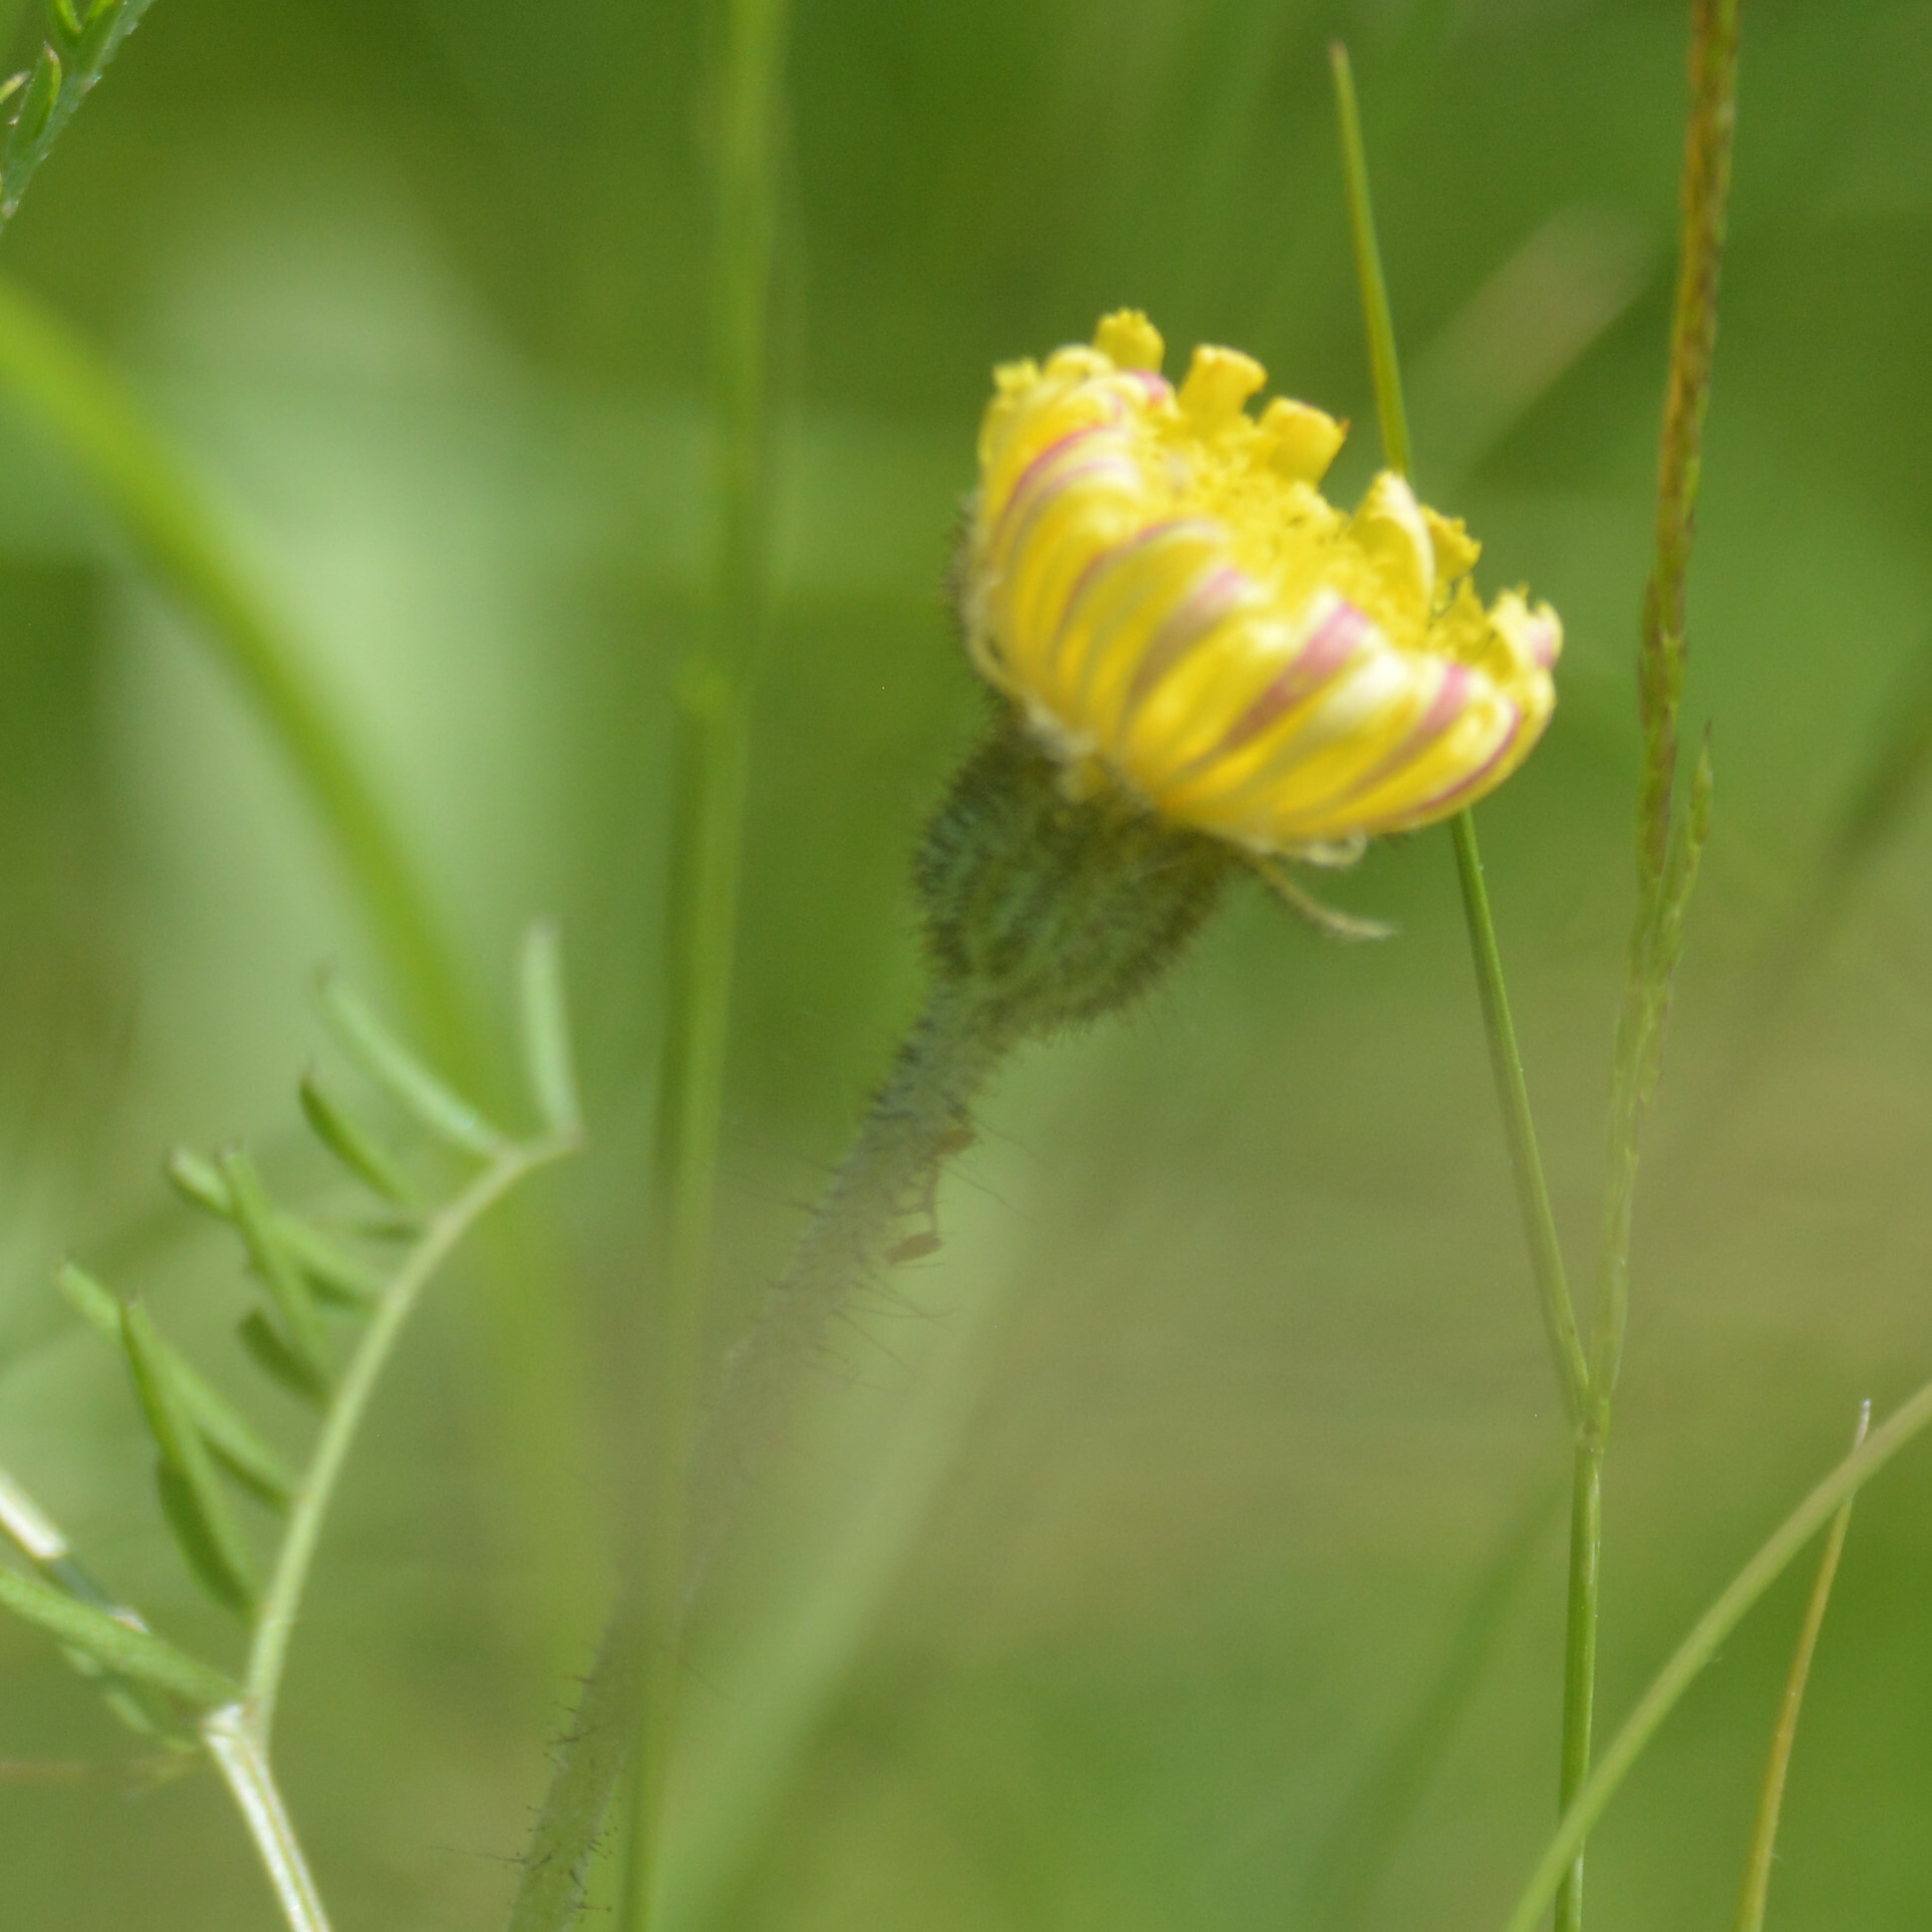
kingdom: Plantae
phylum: Tracheophyta
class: Magnoliopsida
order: Asterales
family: Asteraceae
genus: Pilosella
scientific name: Pilosella officinarum
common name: Mouse-ear hawkweed
